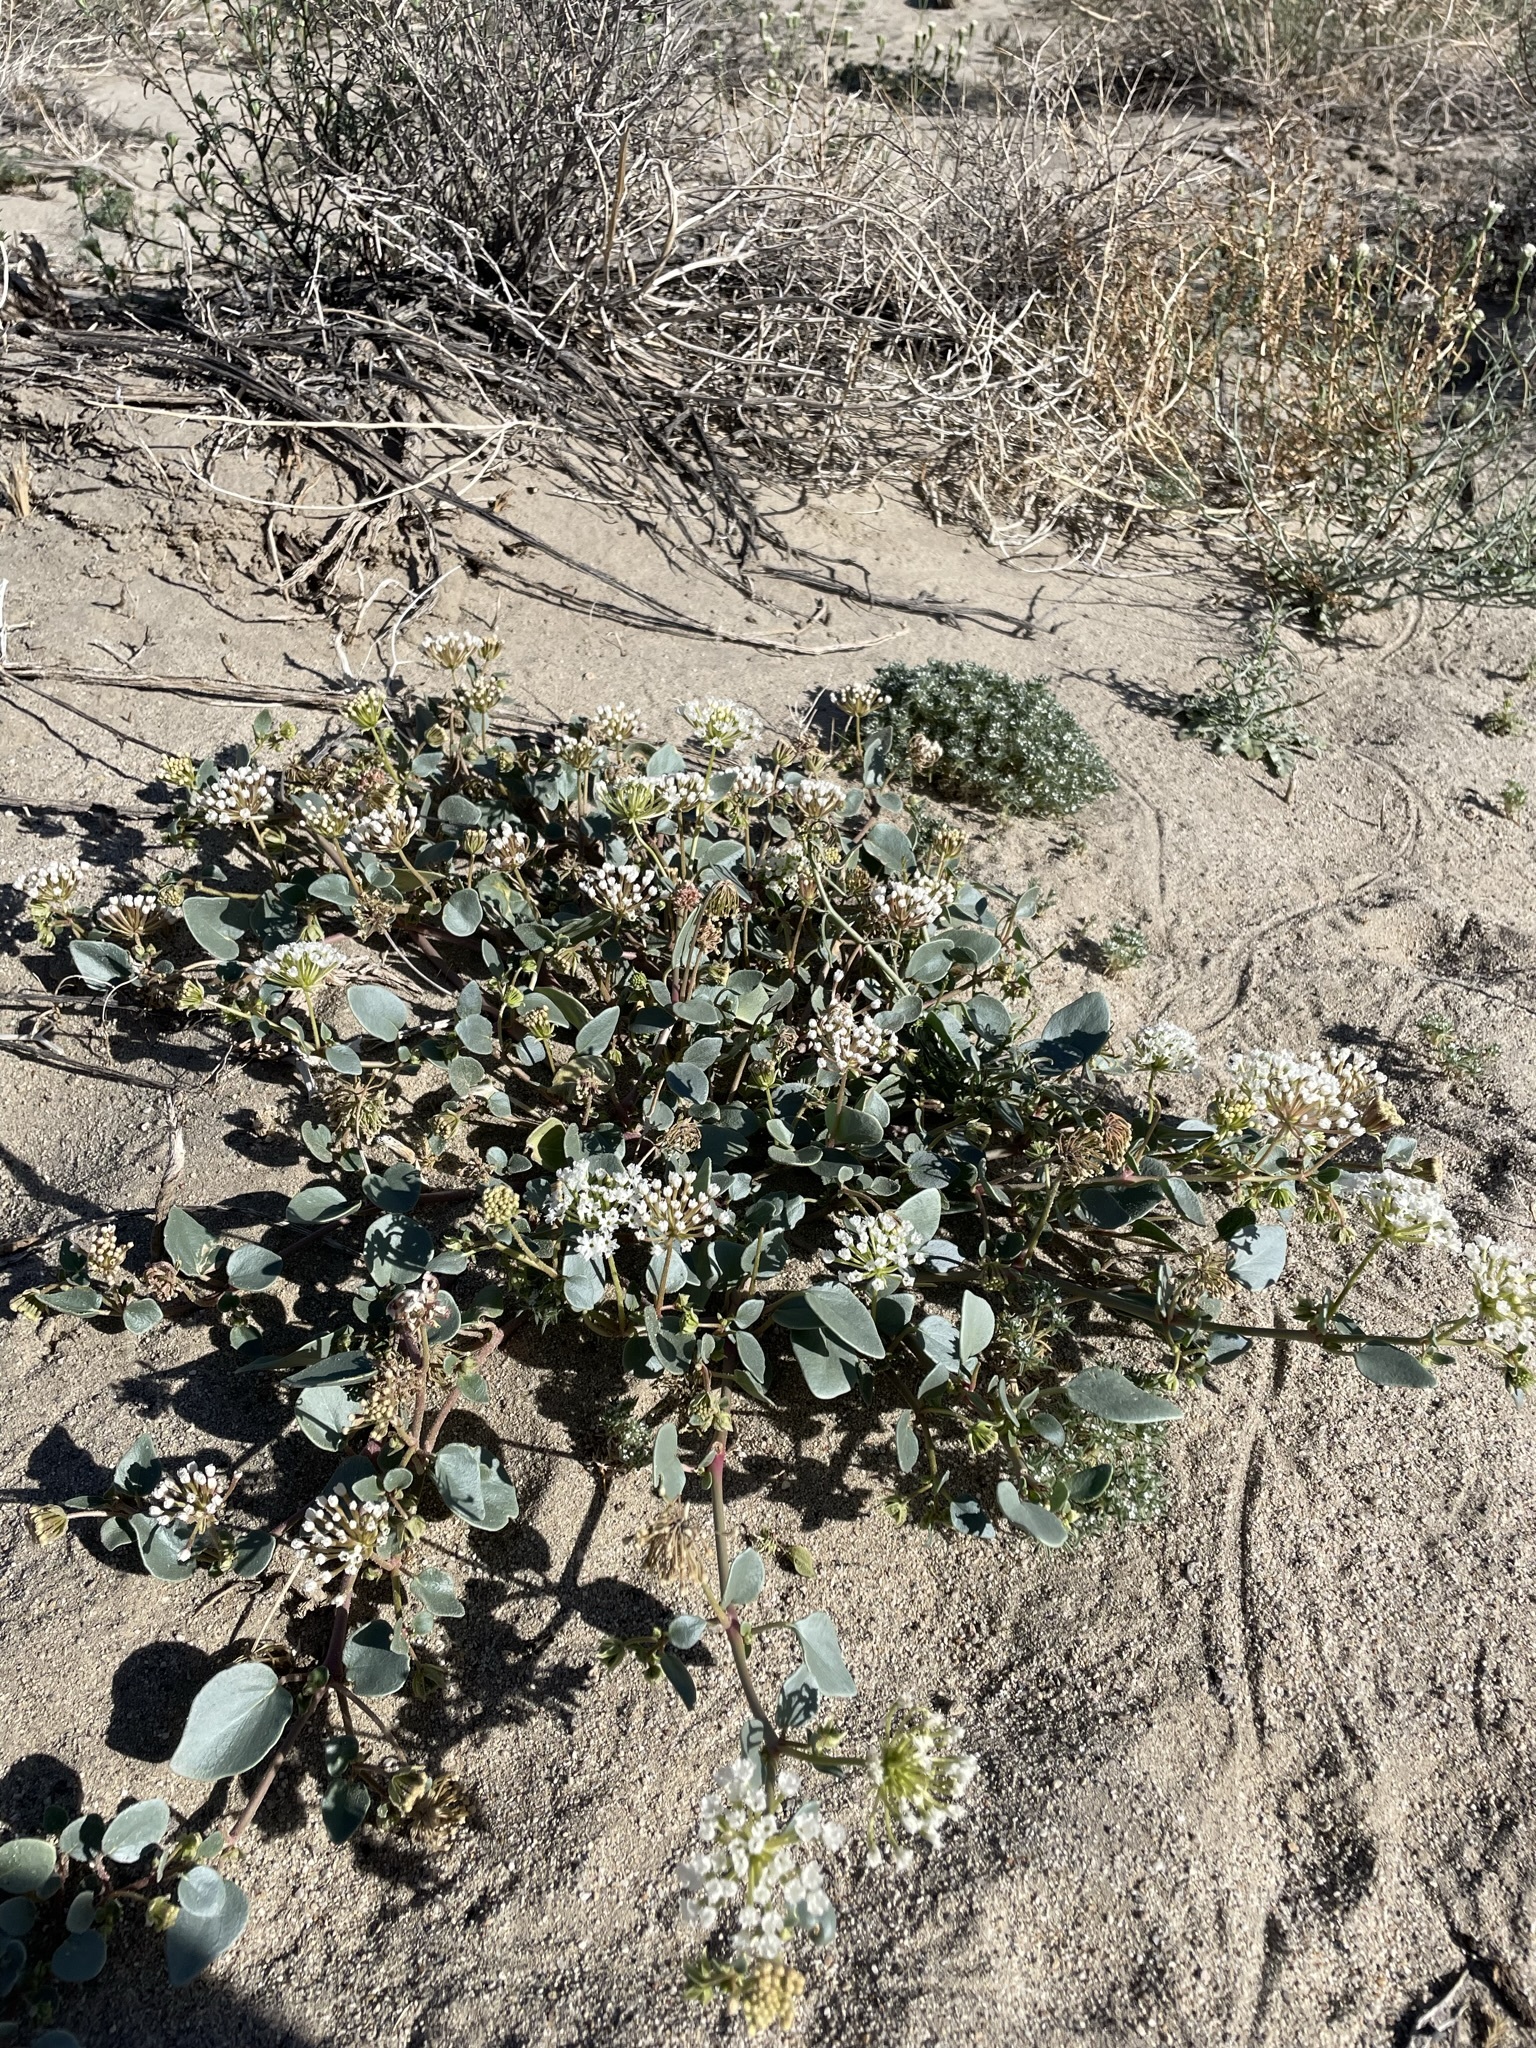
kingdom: Plantae
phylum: Tracheophyta
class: Magnoliopsida
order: Caryophyllales
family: Nyctaginaceae
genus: Abronia
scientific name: Abronia turbinata
